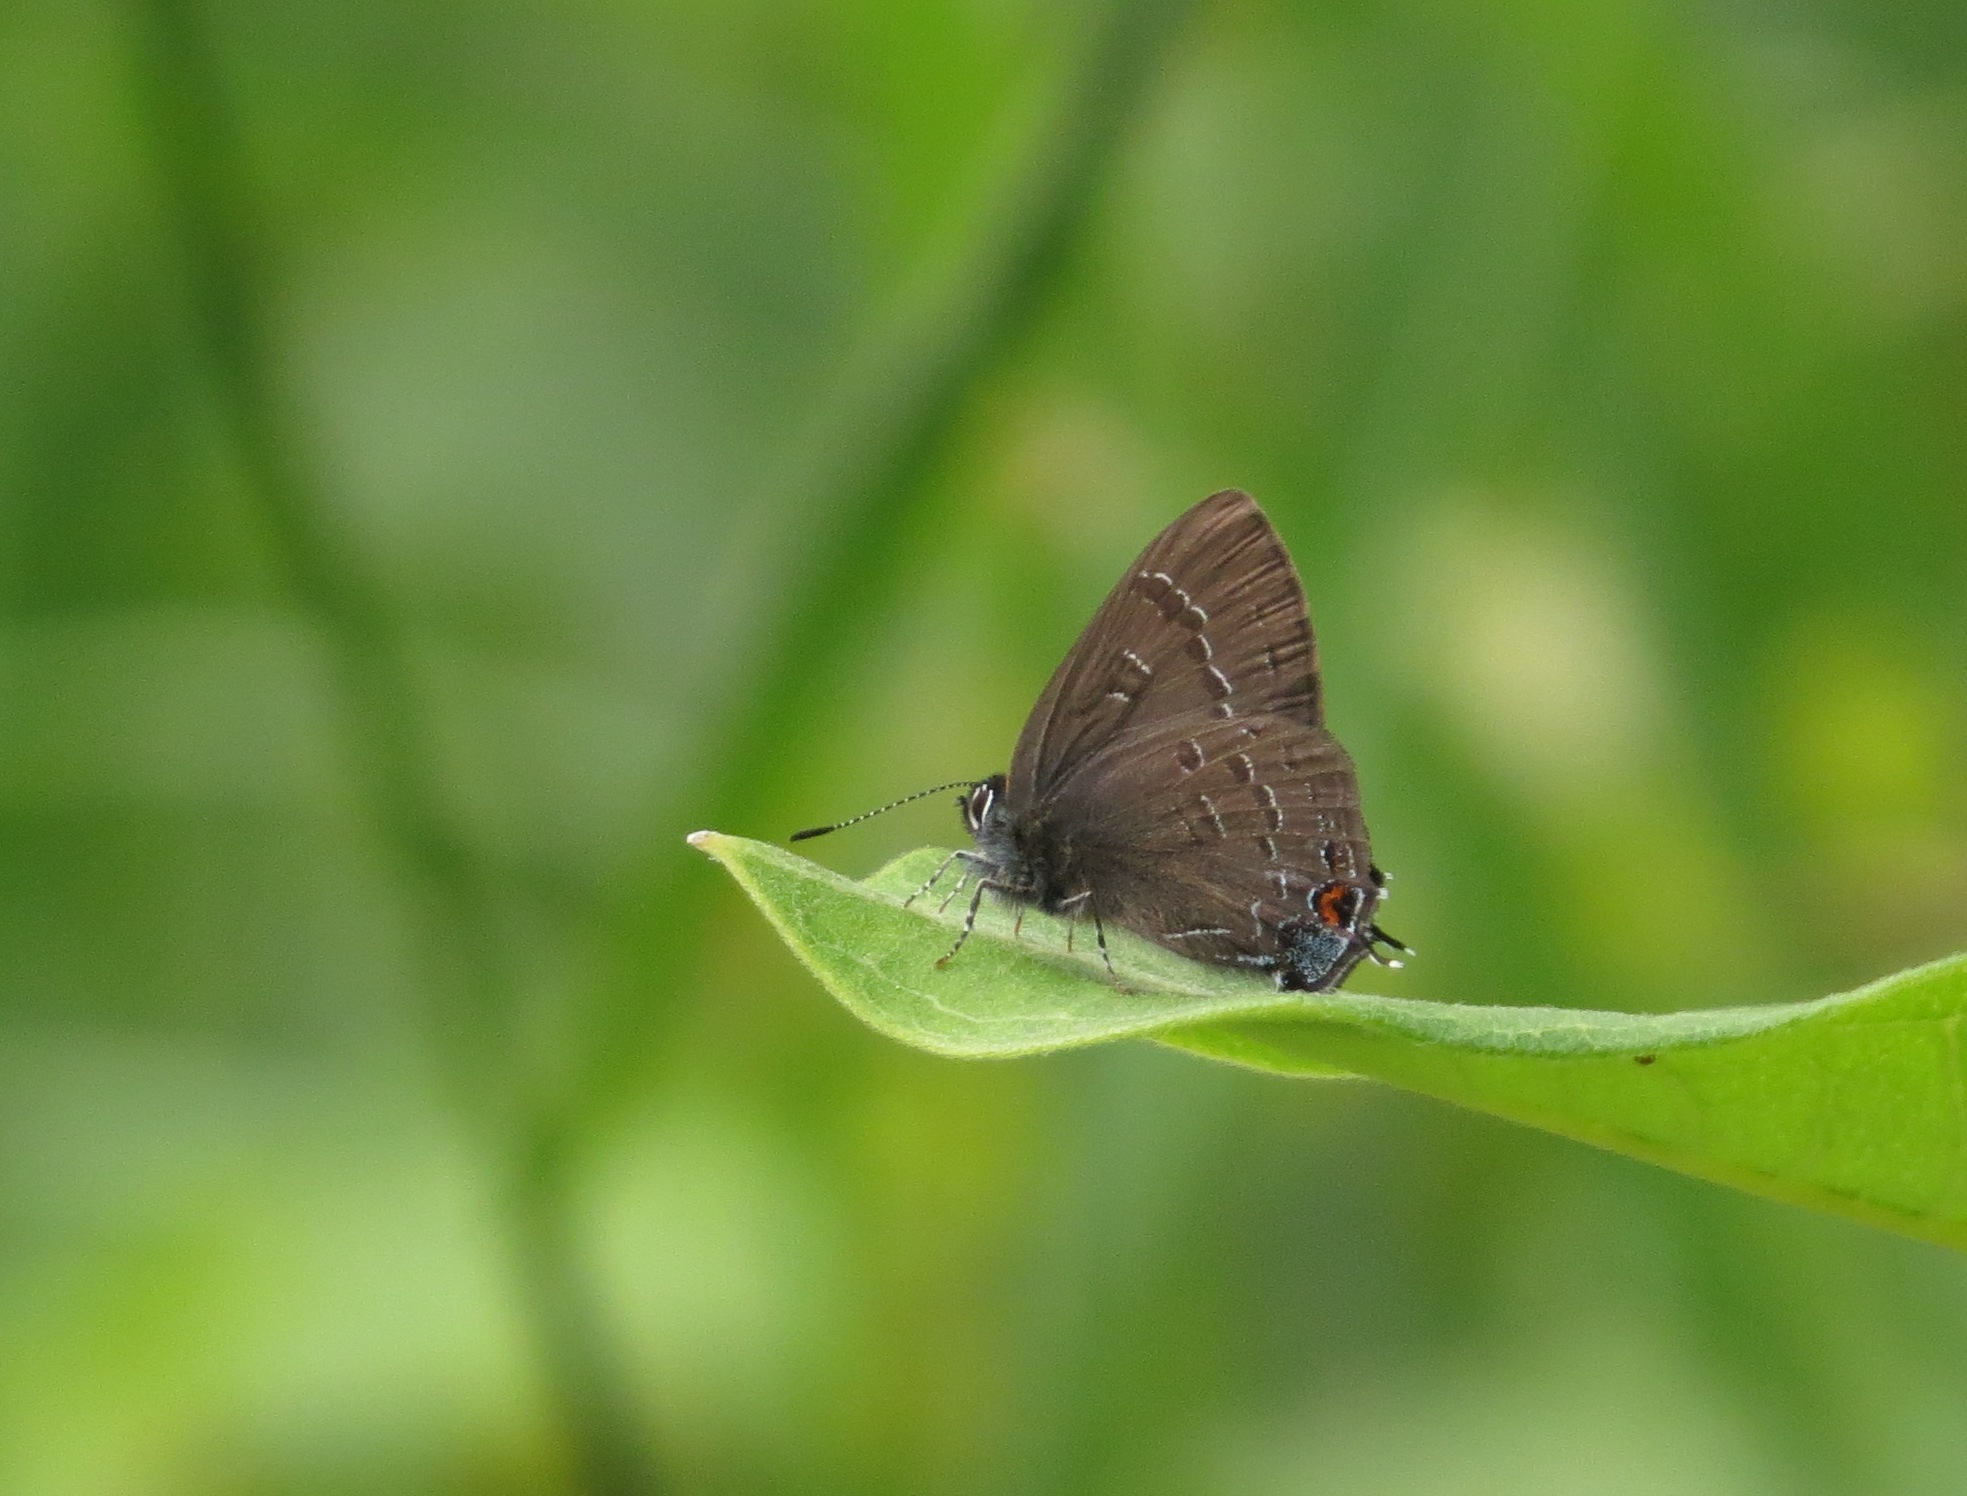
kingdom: Animalia
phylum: Arthropoda
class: Insecta
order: Lepidoptera
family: Lycaenidae
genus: Satyrium
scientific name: Satyrium calanus
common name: Banded hairstreak
